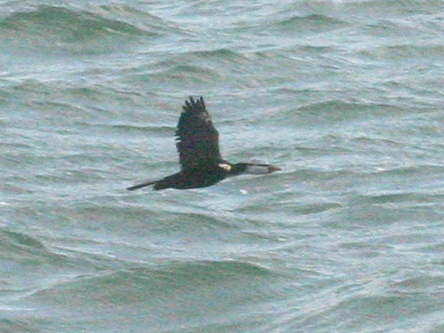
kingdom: Animalia
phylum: Chordata
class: Aves
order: Suliformes
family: Phalacrocoracidae
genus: Microcarbo
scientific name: Microcarbo melanoleucos
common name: Little pied cormorant
